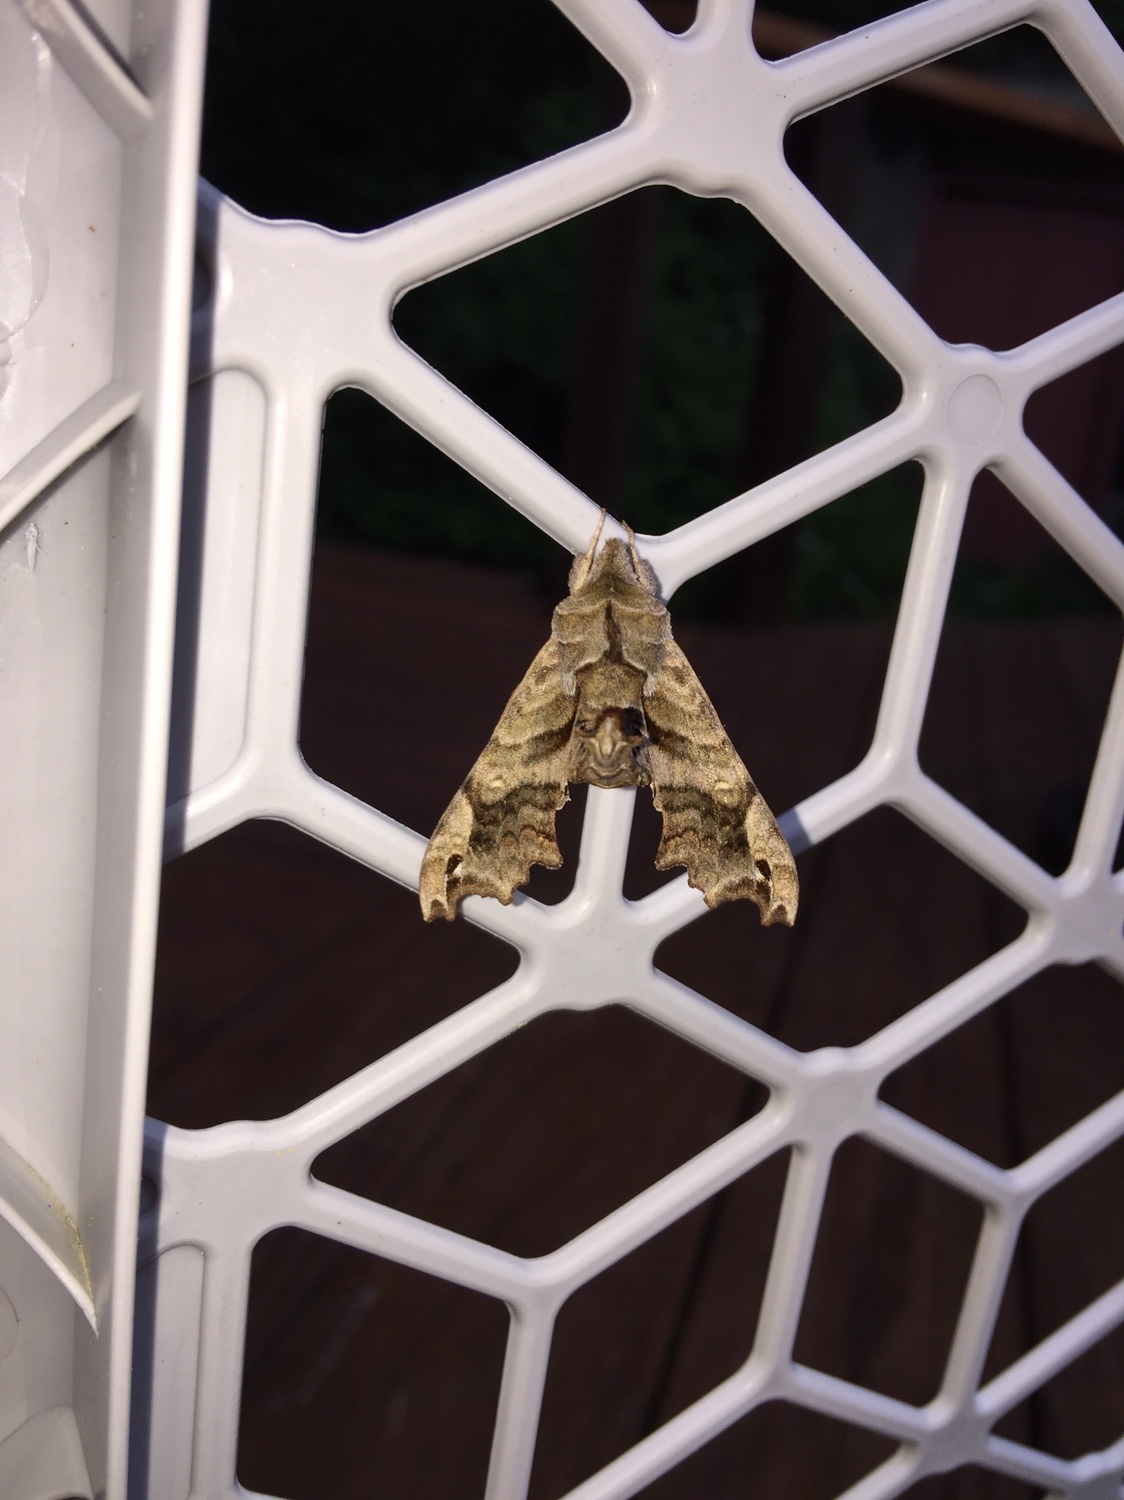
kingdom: Animalia
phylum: Arthropoda
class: Insecta
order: Lepidoptera
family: Sphingidae
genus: Deidamia
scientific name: Deidamia inscriptum
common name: Lettered sphinx
